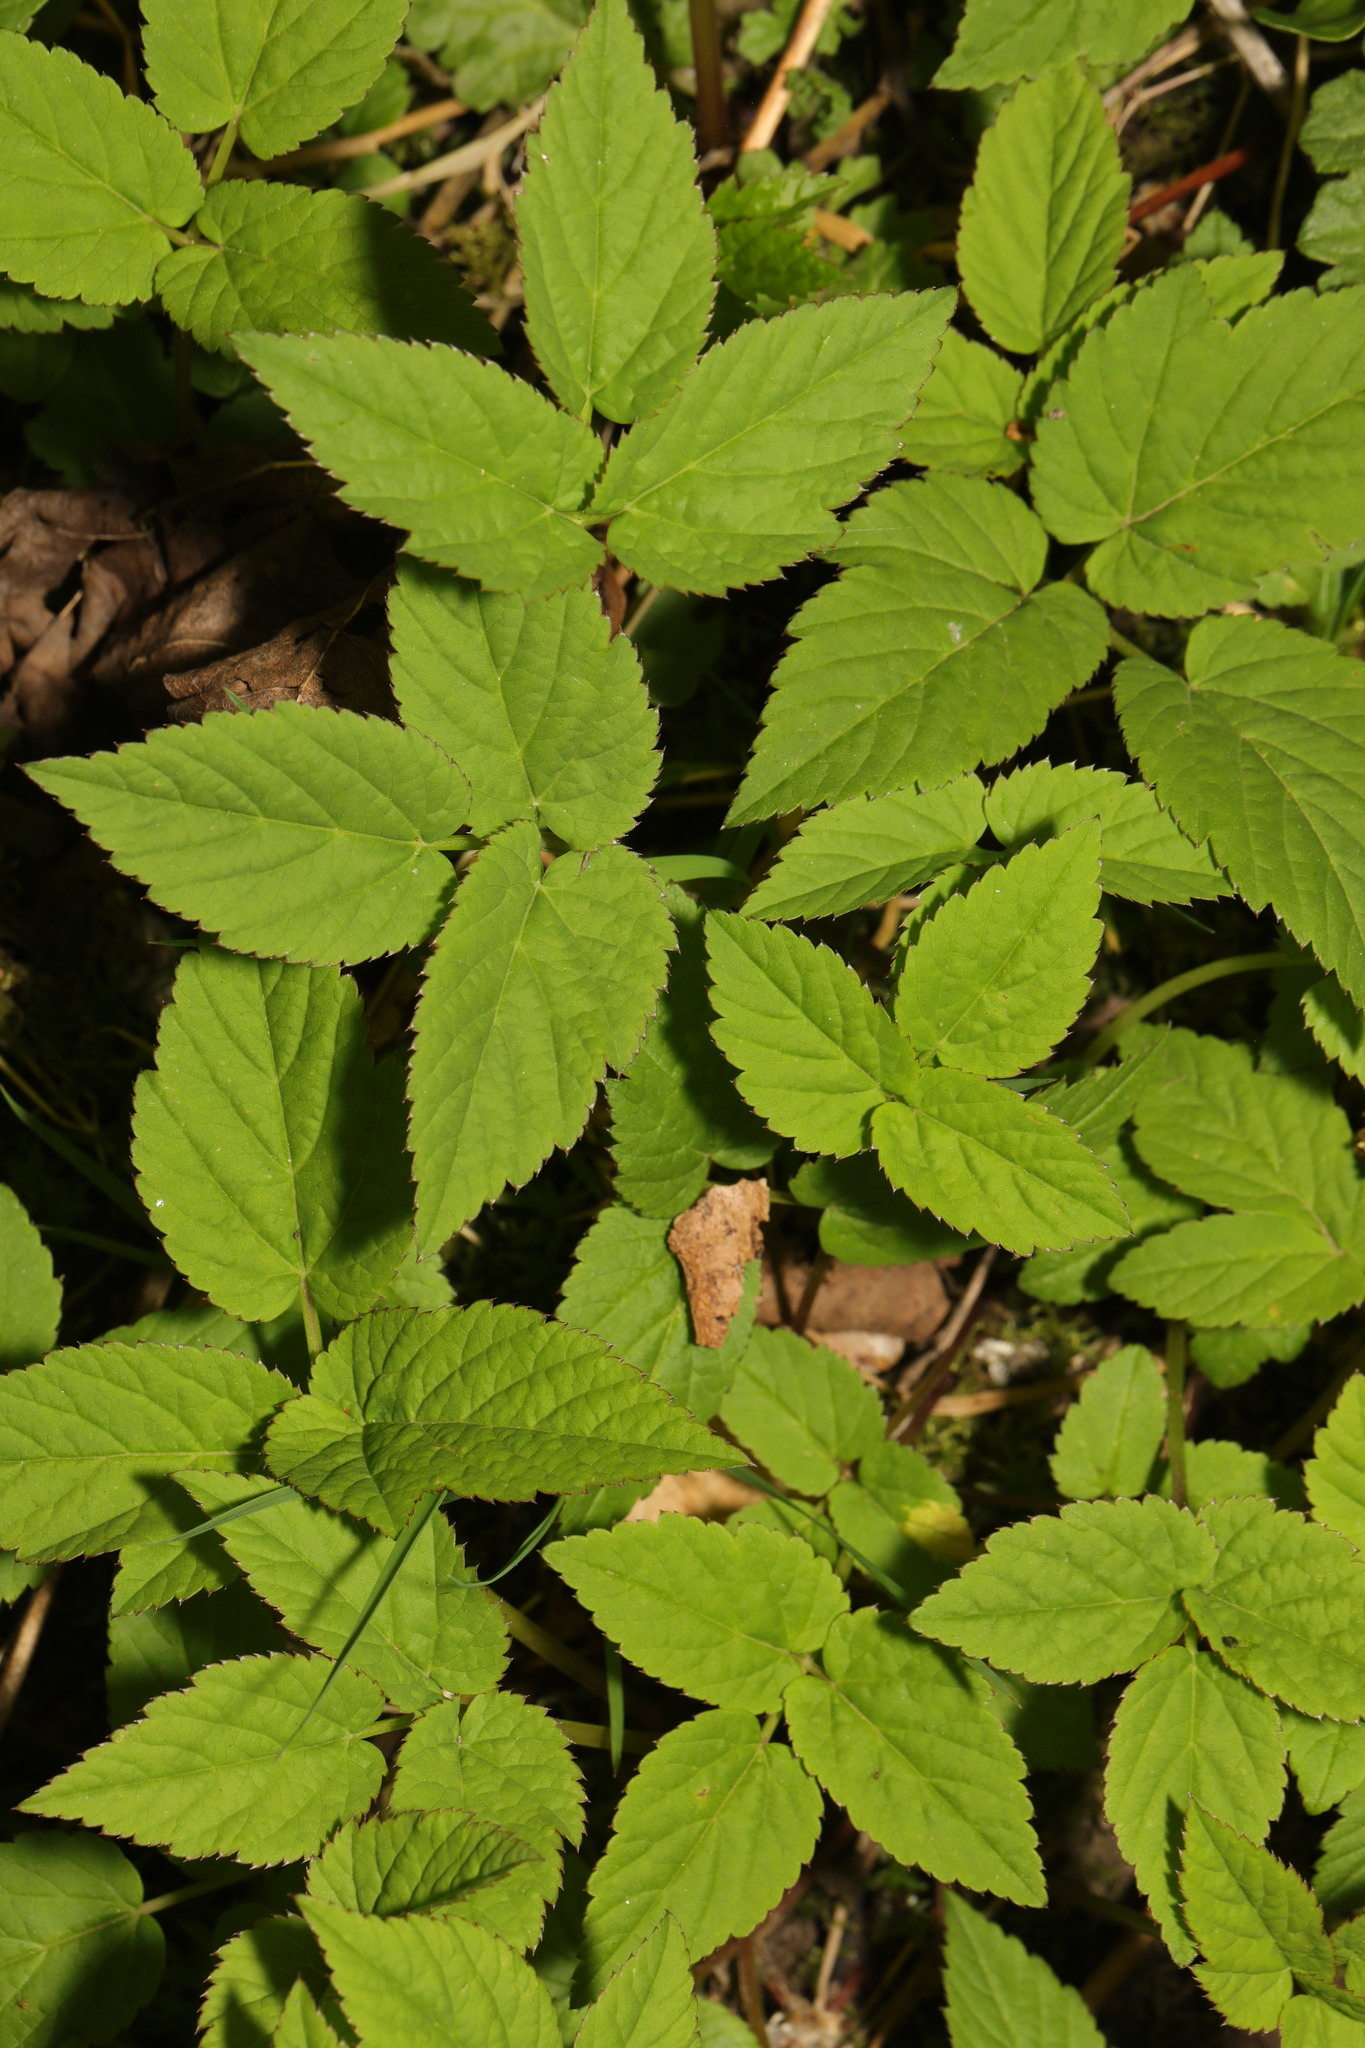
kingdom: Plantae
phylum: Tracheophyta
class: Magnoliopsida
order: Apiales
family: Apiaceae
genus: Aegopodium
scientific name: Aegopodium podagraria
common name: Ground-elder
